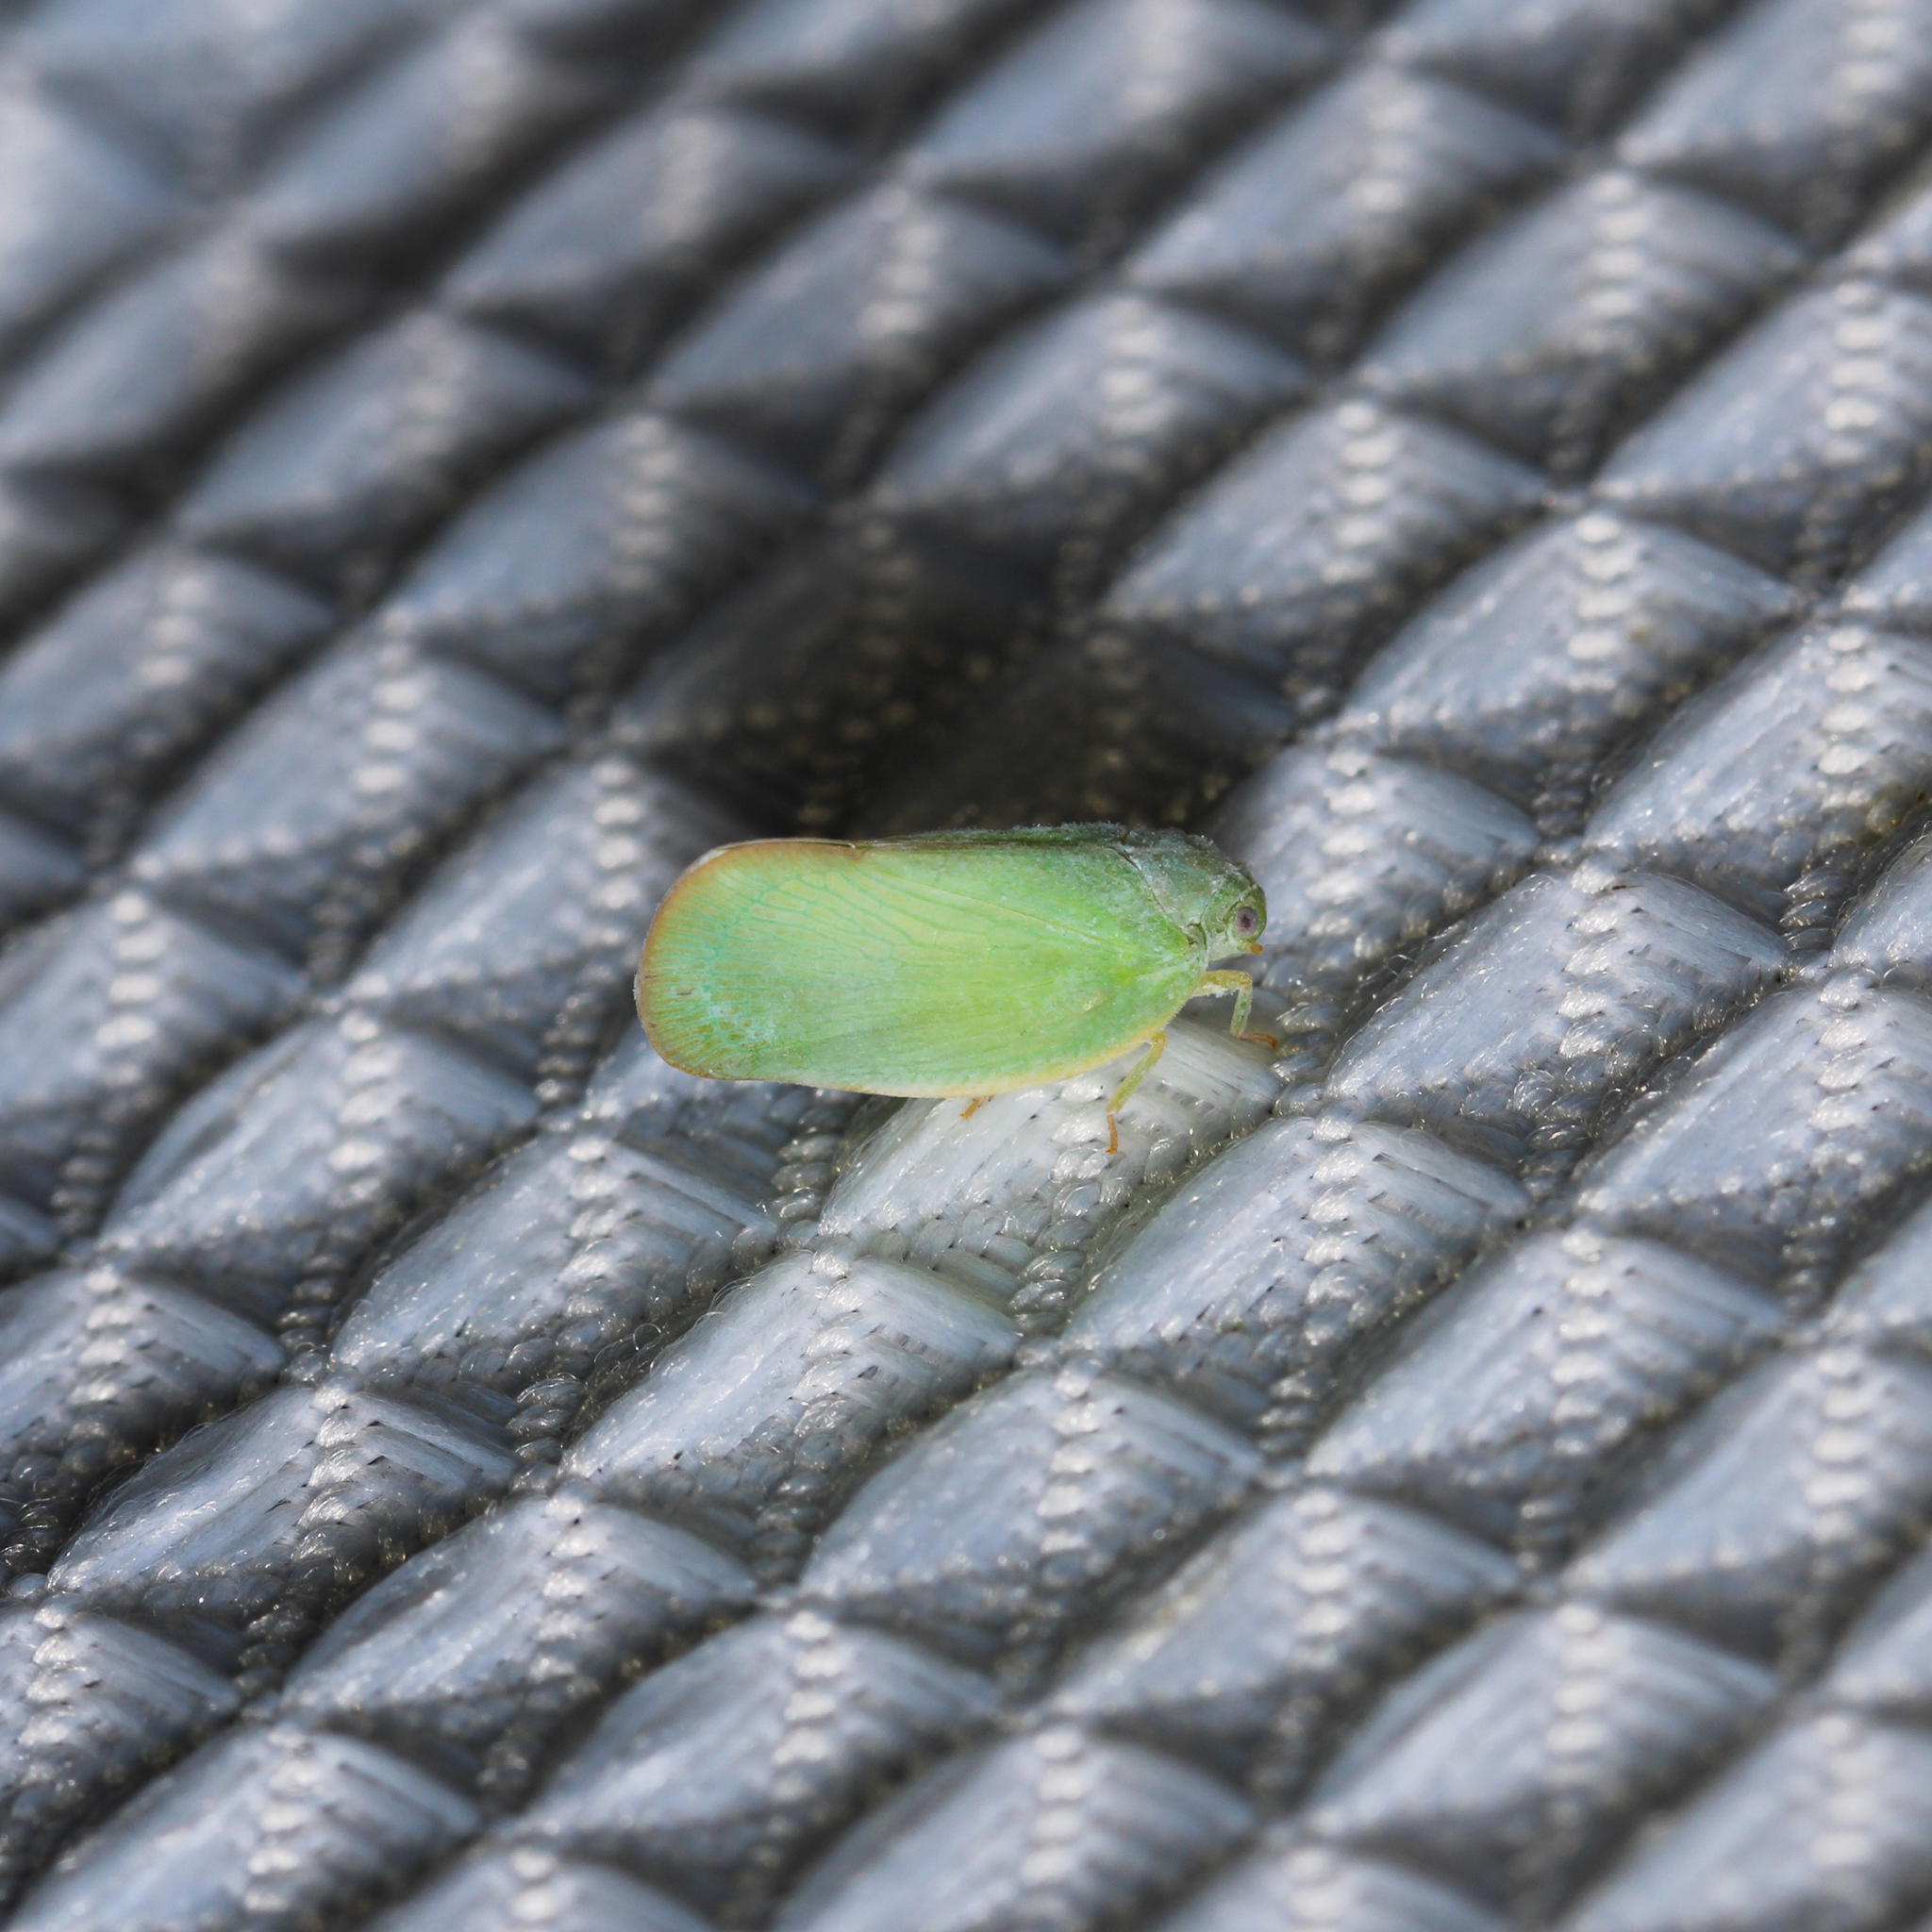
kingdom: Animalia
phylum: Arthropoda
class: Insecta
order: Hemiptera
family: Flatidae
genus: Ormenoides
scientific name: Ormenoides venusta
